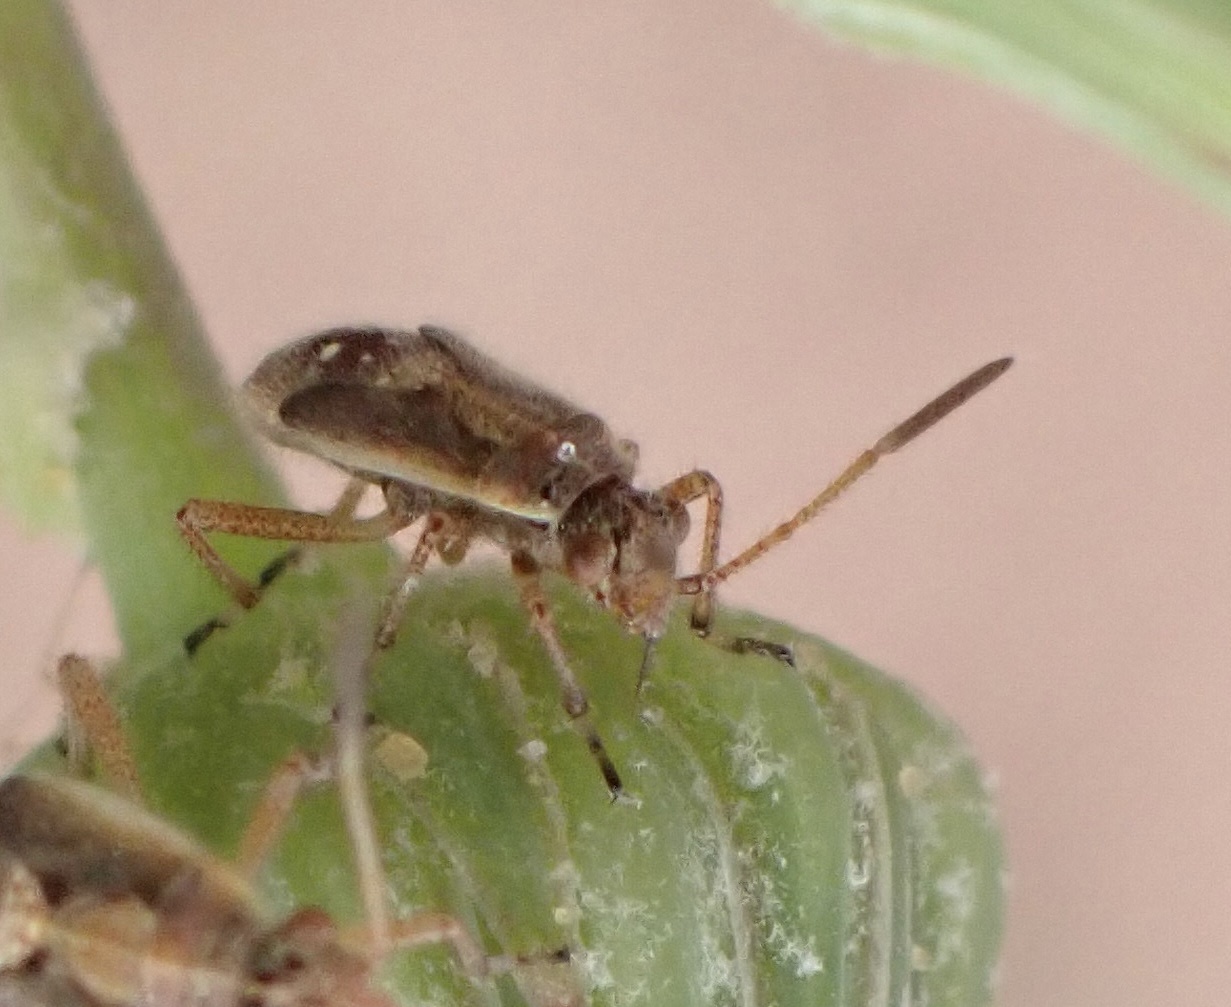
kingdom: Animalia
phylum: Arthropoda
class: Insecta
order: Hemiptera
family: Rhopalidae
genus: Liorhyssus
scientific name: Liorhyssus hyalinus
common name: Scentless plant bug
